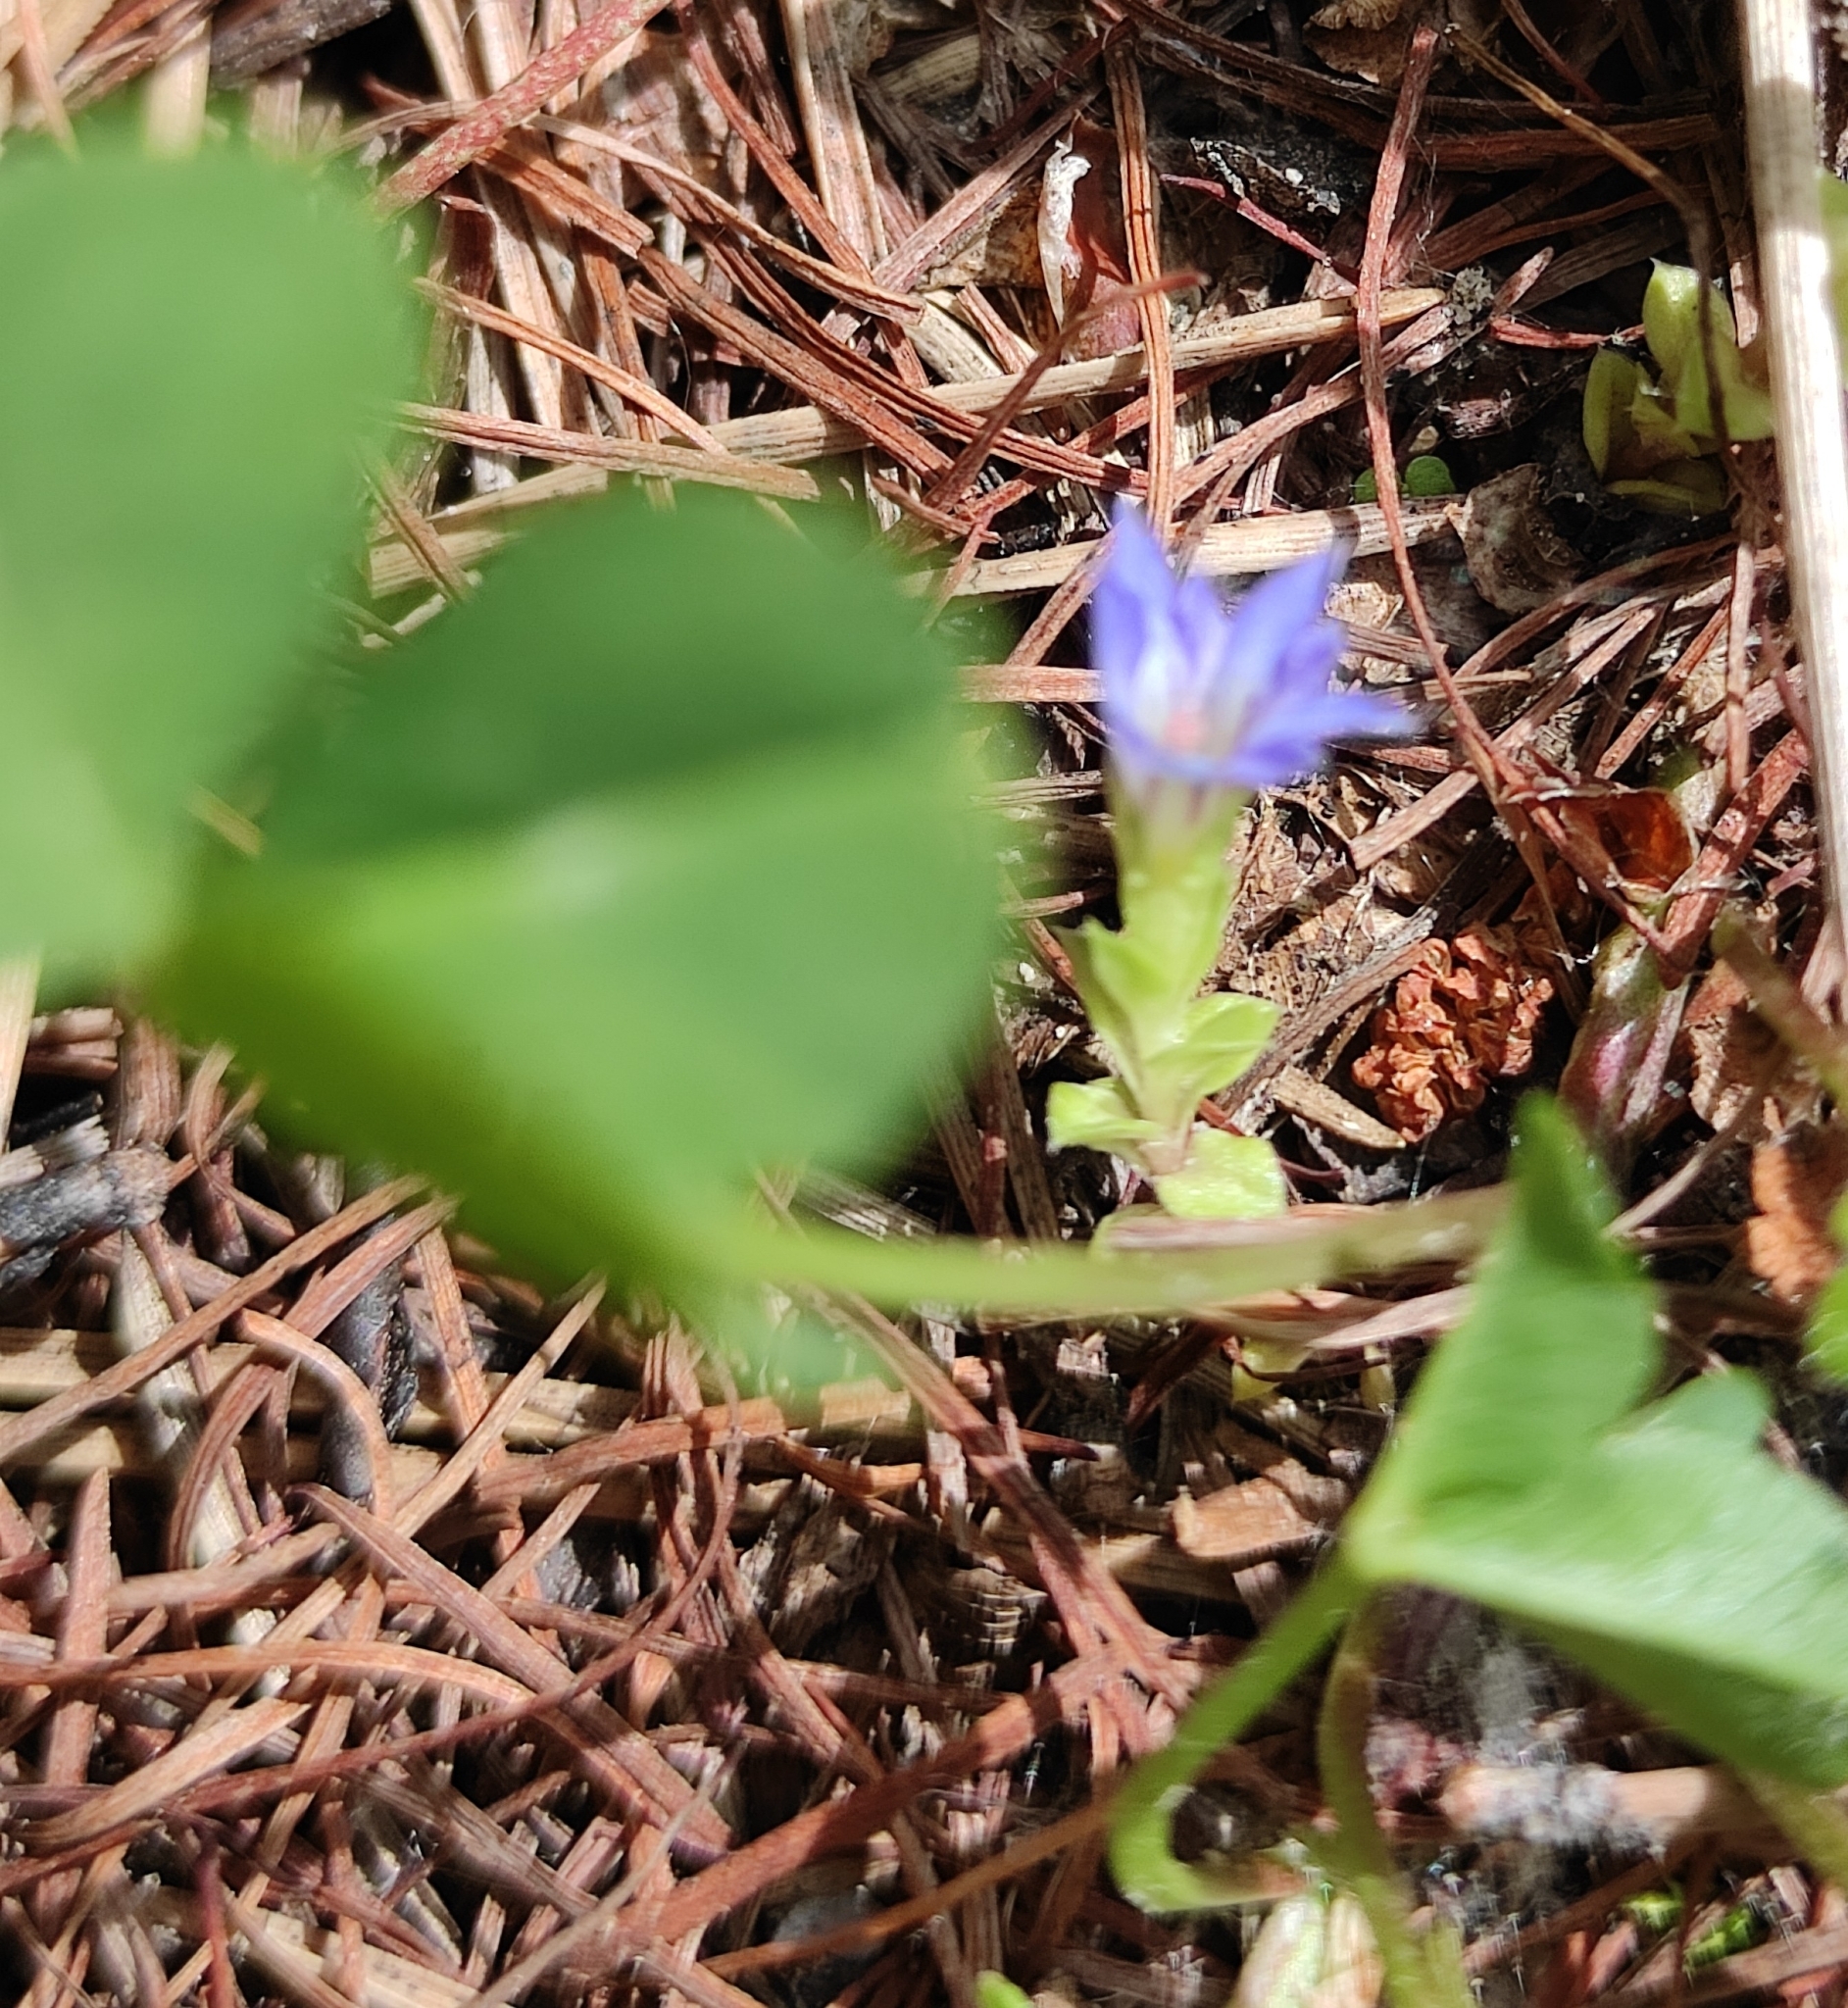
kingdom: Plantae
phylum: Tracheophyta
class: Magnoliopsida
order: Gentianales
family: Gentianaceae
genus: Gentiana
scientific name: Gentiana squarrosa
